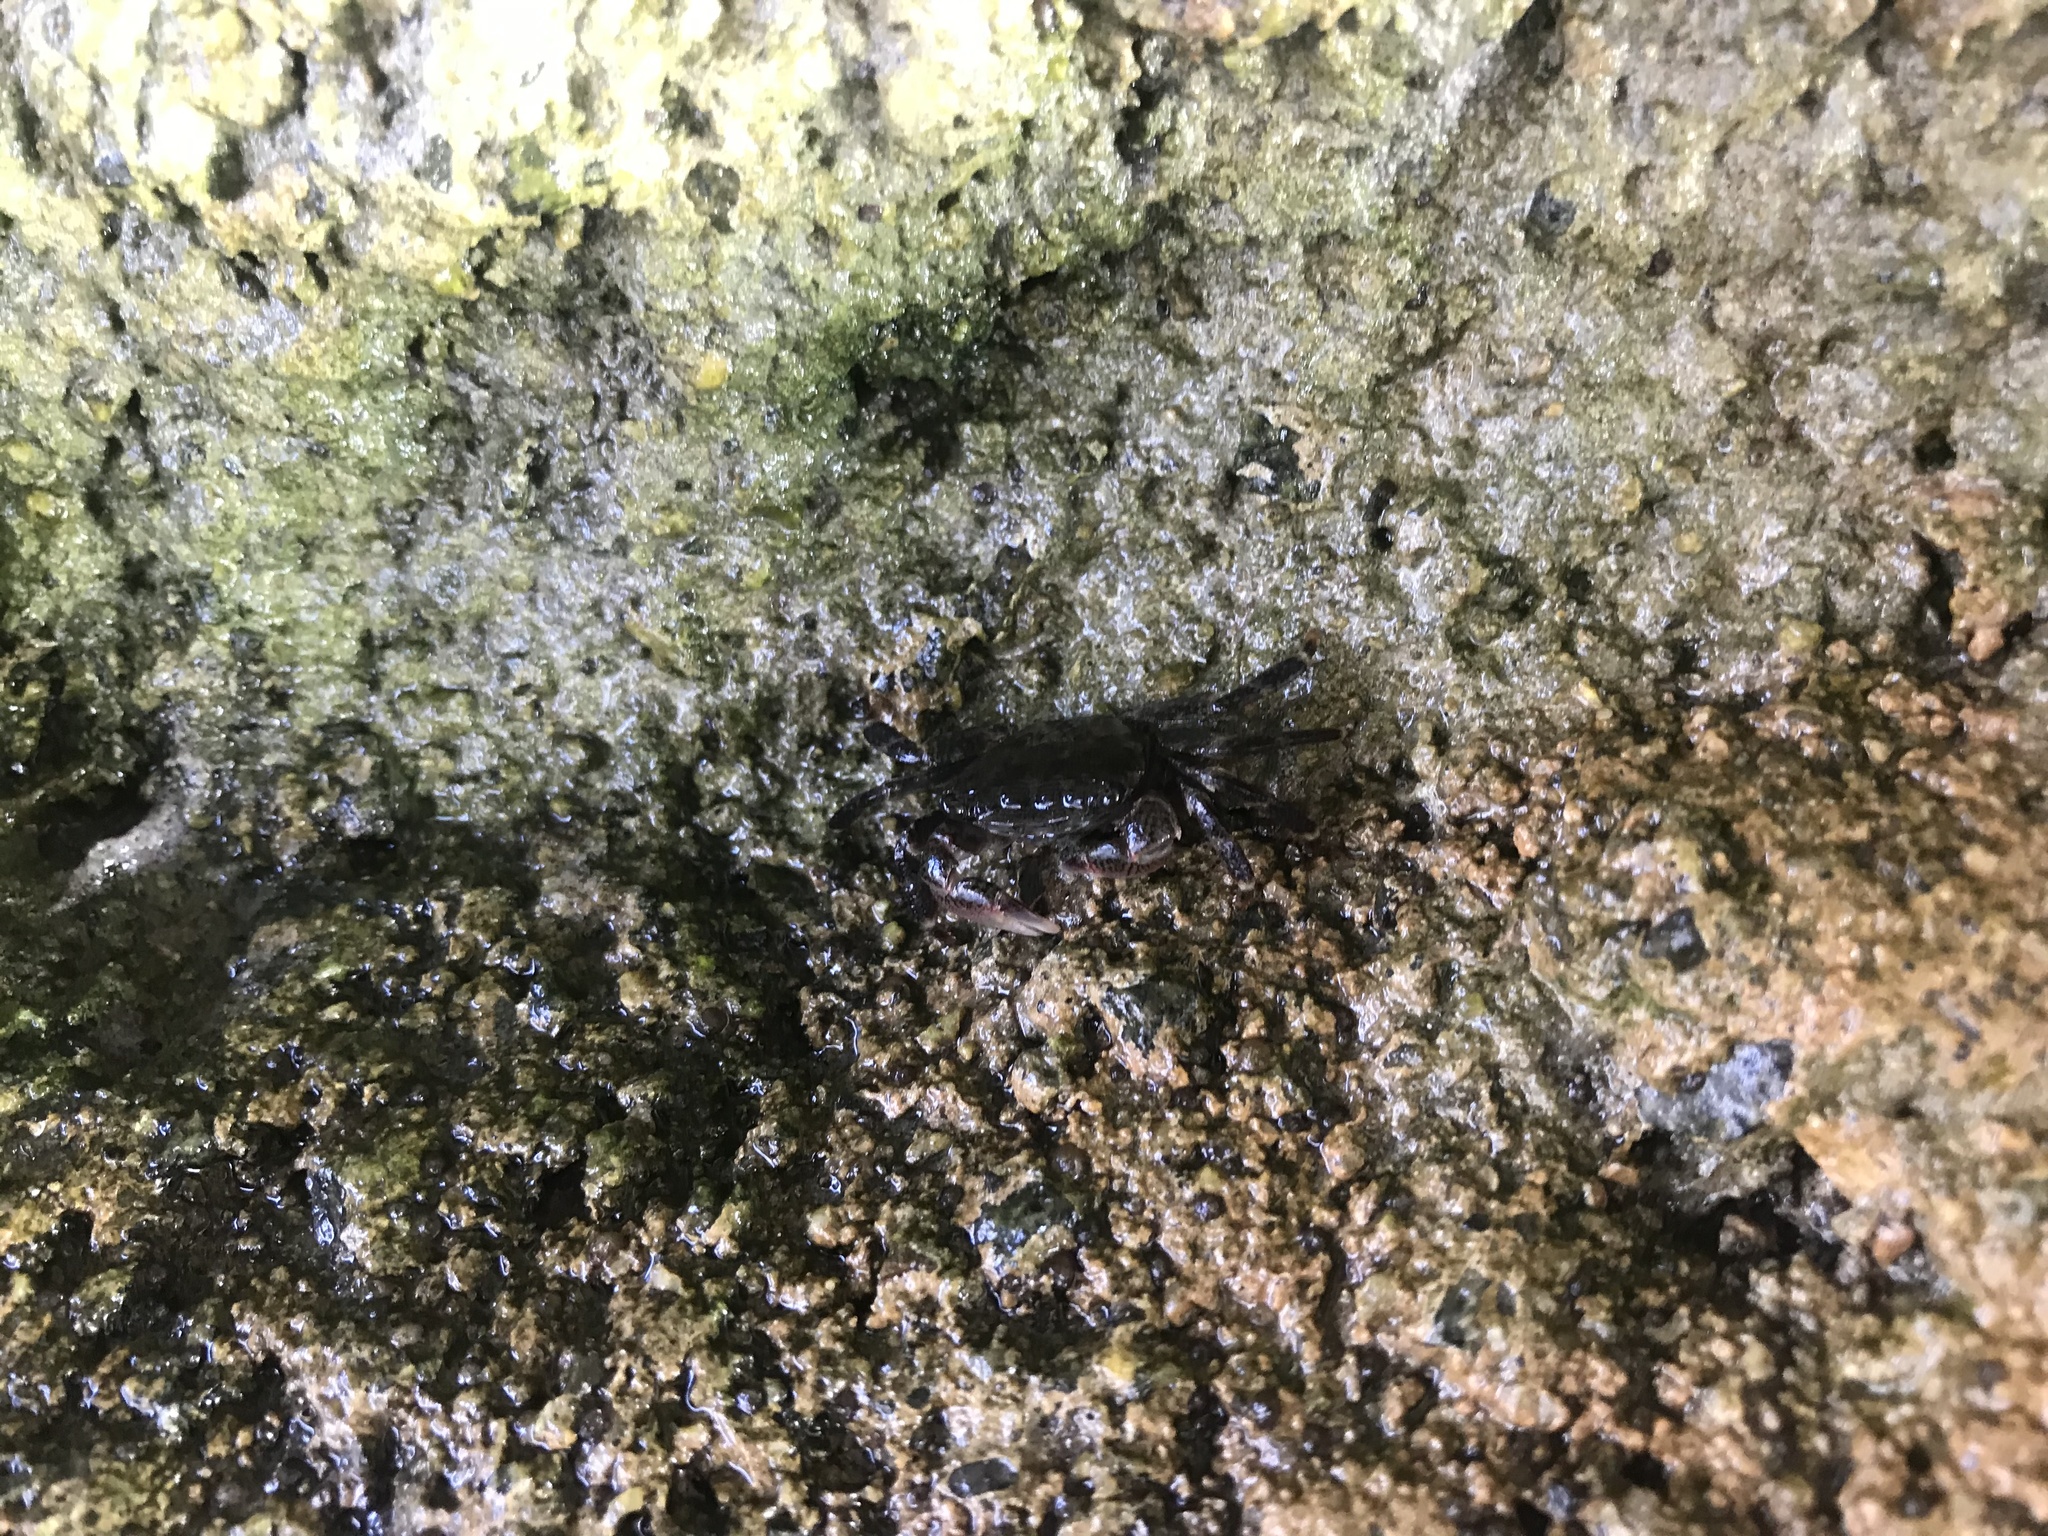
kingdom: Animalia
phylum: Arthropoda
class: Malacostraca
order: Decapoda
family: Grapsidae
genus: Pachygrapsus
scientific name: Pachygrapsus crassipes
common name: Striped shore crab
